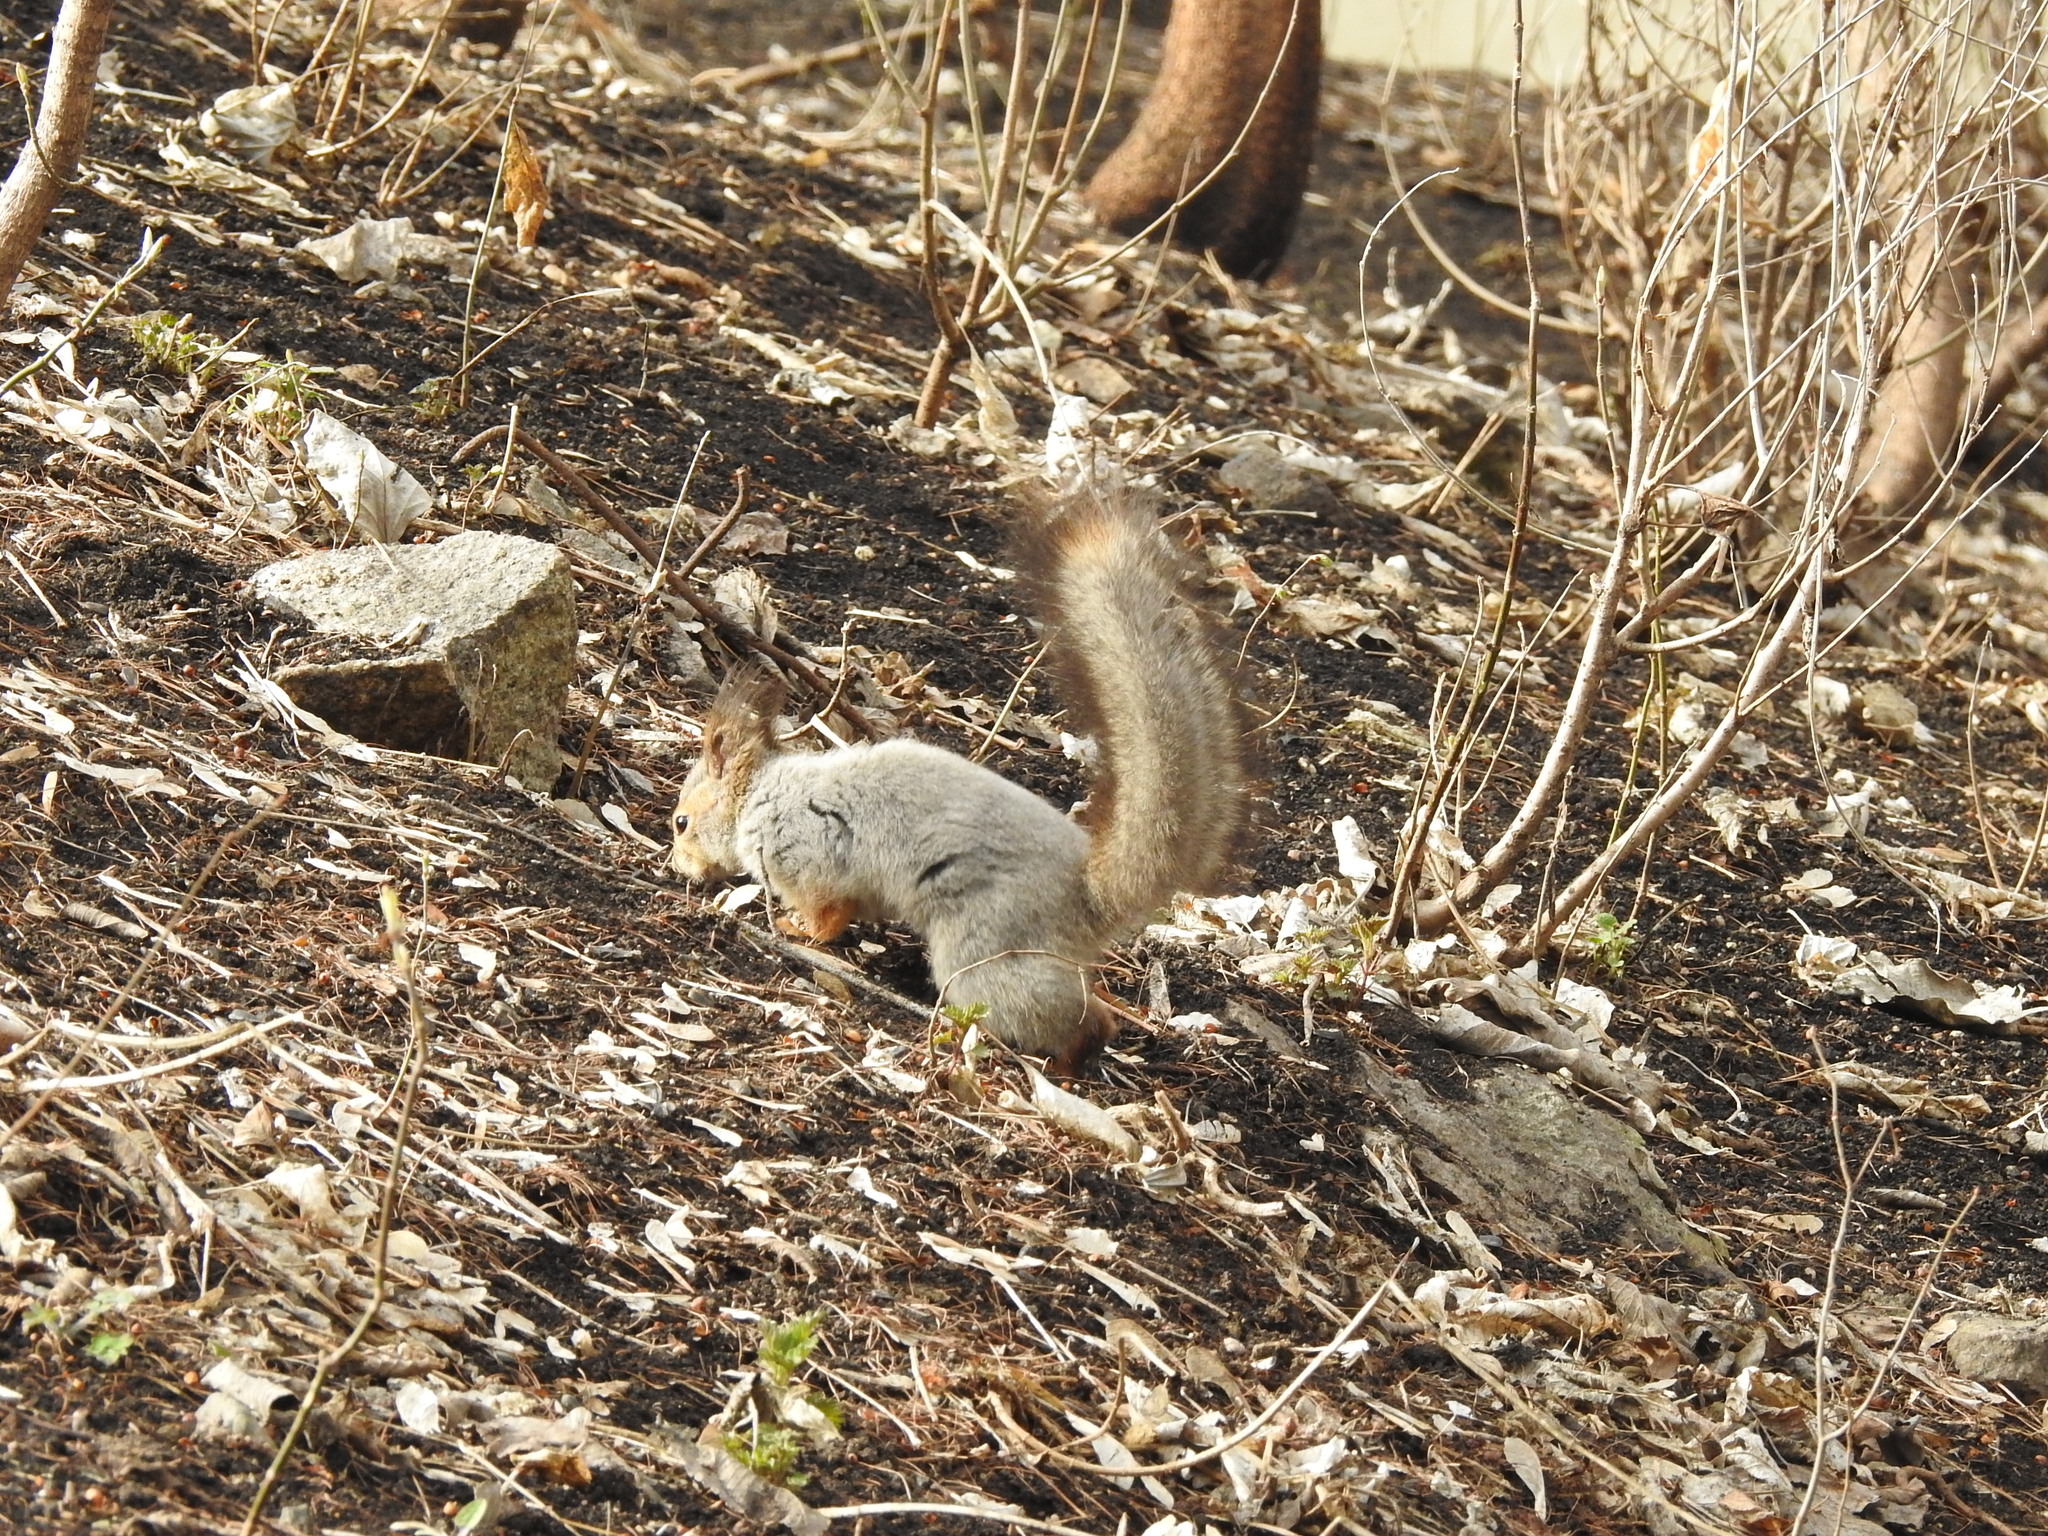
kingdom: Animalia
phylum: Chordata
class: Mammalia
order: Rodentia
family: Sciuridae
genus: Sciurus
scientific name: Sciurus vulgaris
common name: Eurasian red squirrel
